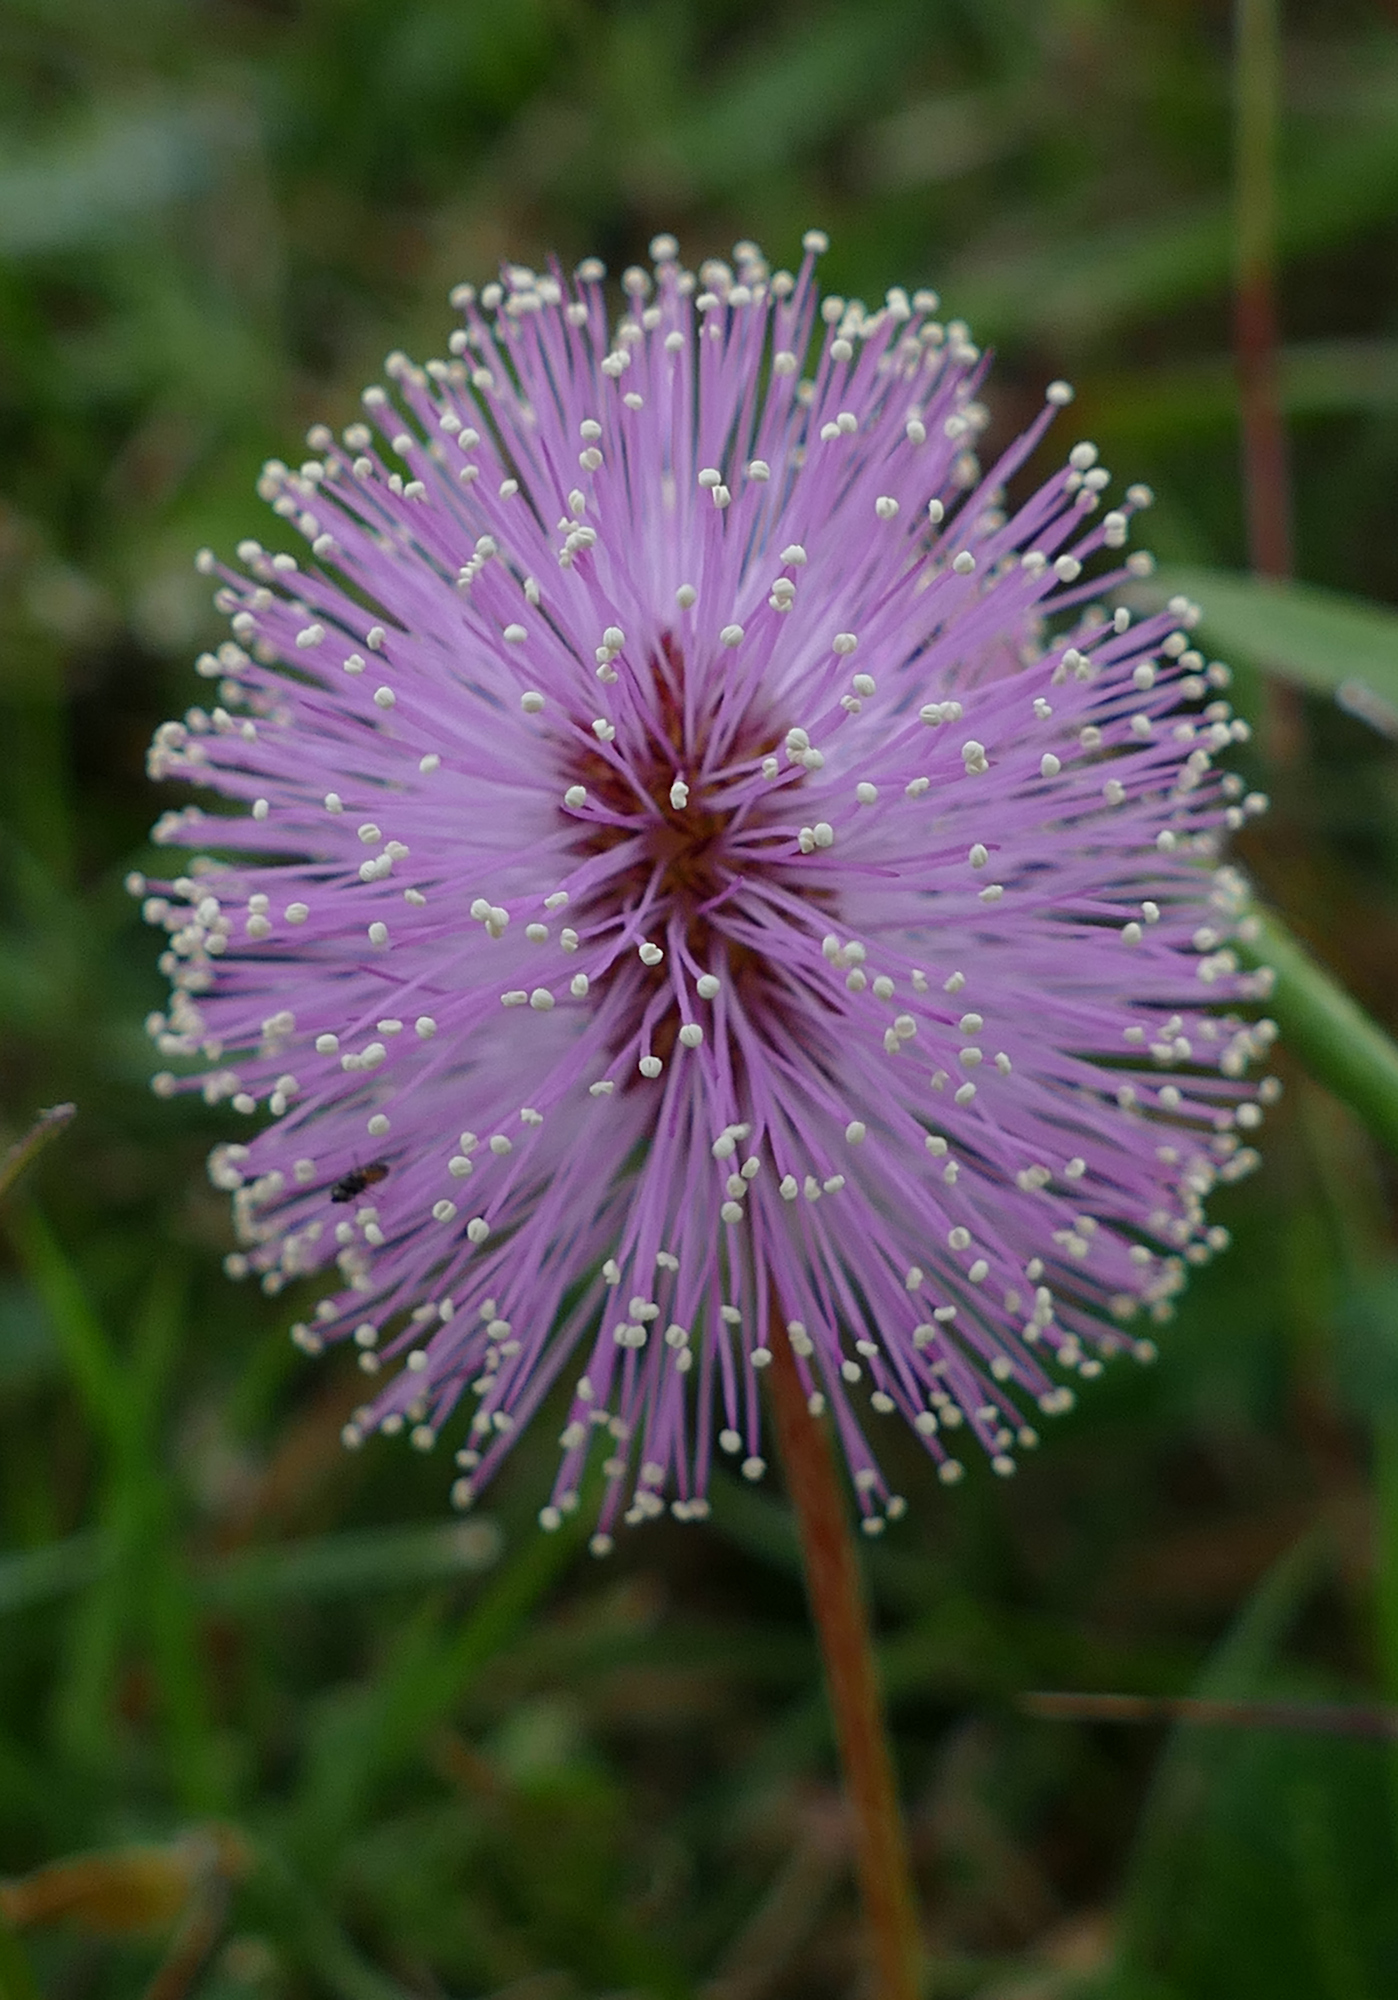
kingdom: Plantae
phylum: Tracheophyta
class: Magnoliopsida
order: Fabales
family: Fabaceae
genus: Mimosa
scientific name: Mimosa strigillosa
